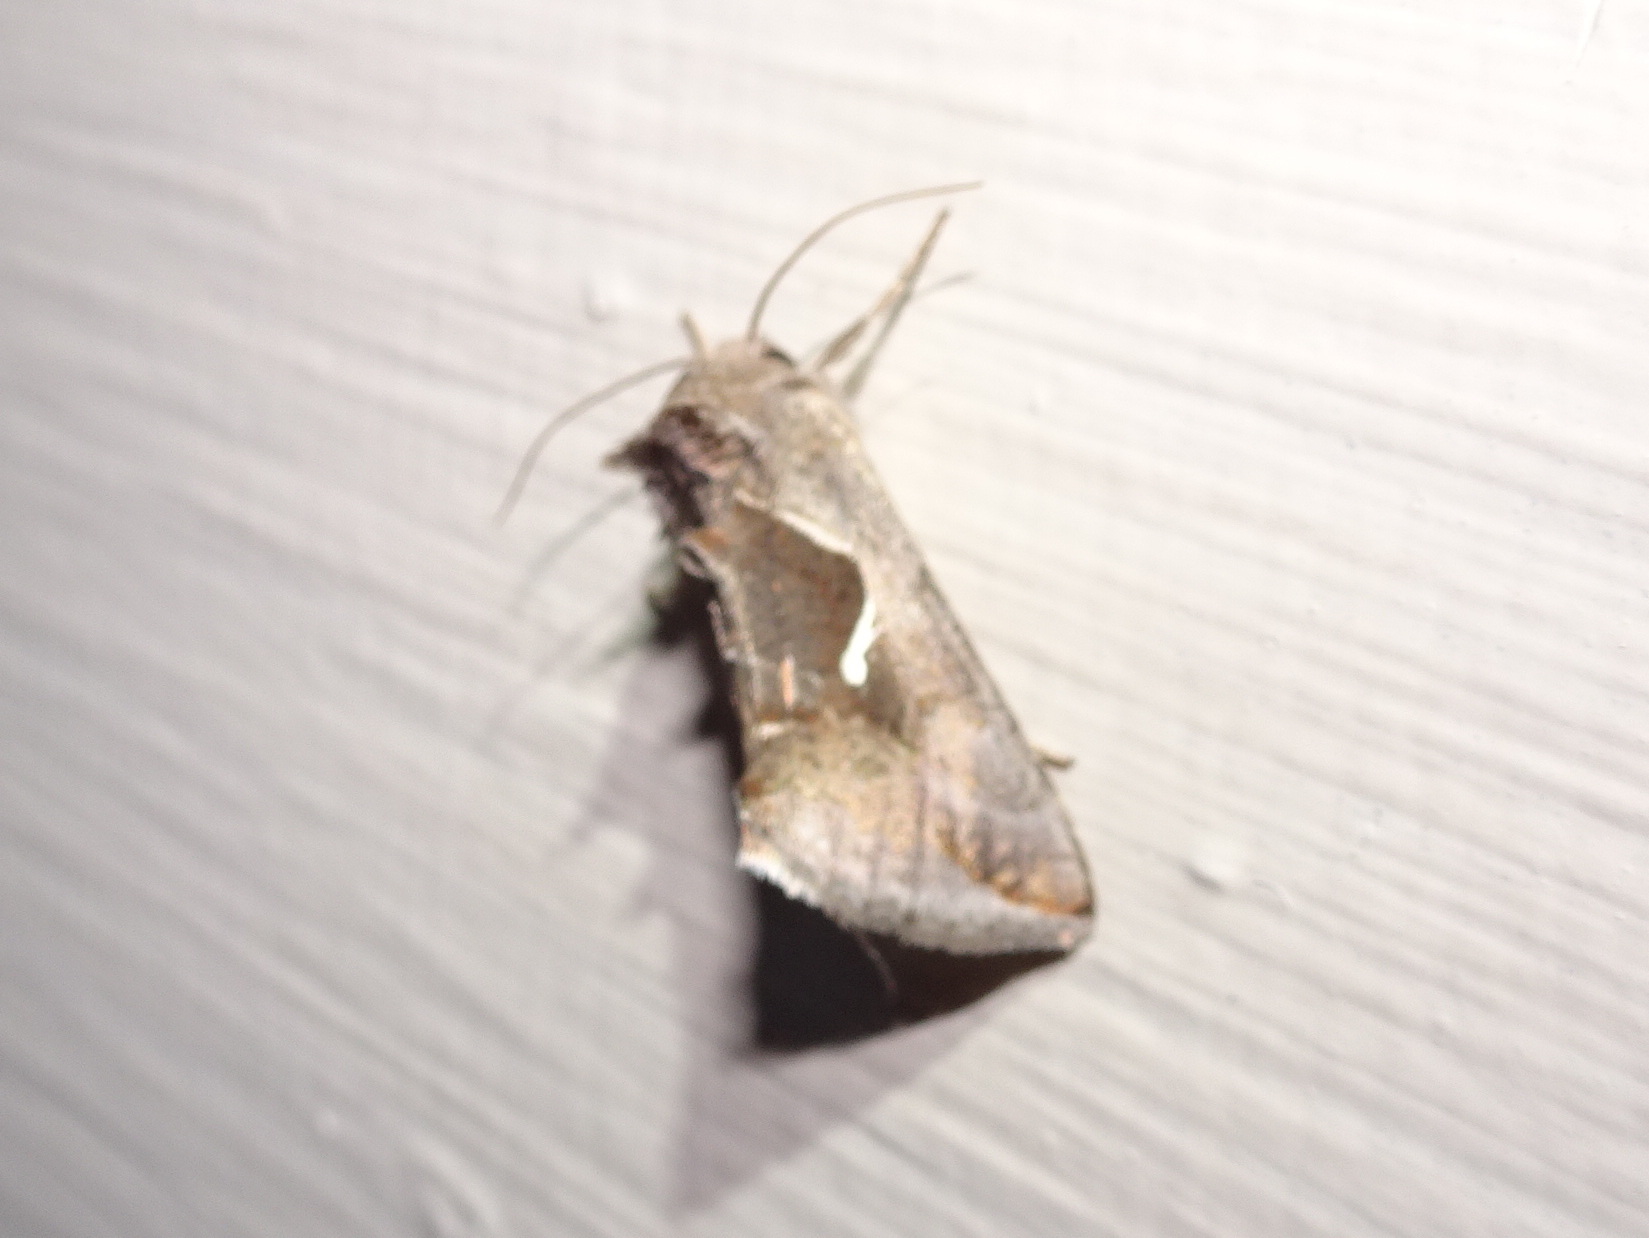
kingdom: Animalia
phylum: Arthropoda
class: Insecta
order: Lepidoptera
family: Noctuidae
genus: Anagrapha
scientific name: Anagrapha falcifera
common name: Celery looper
